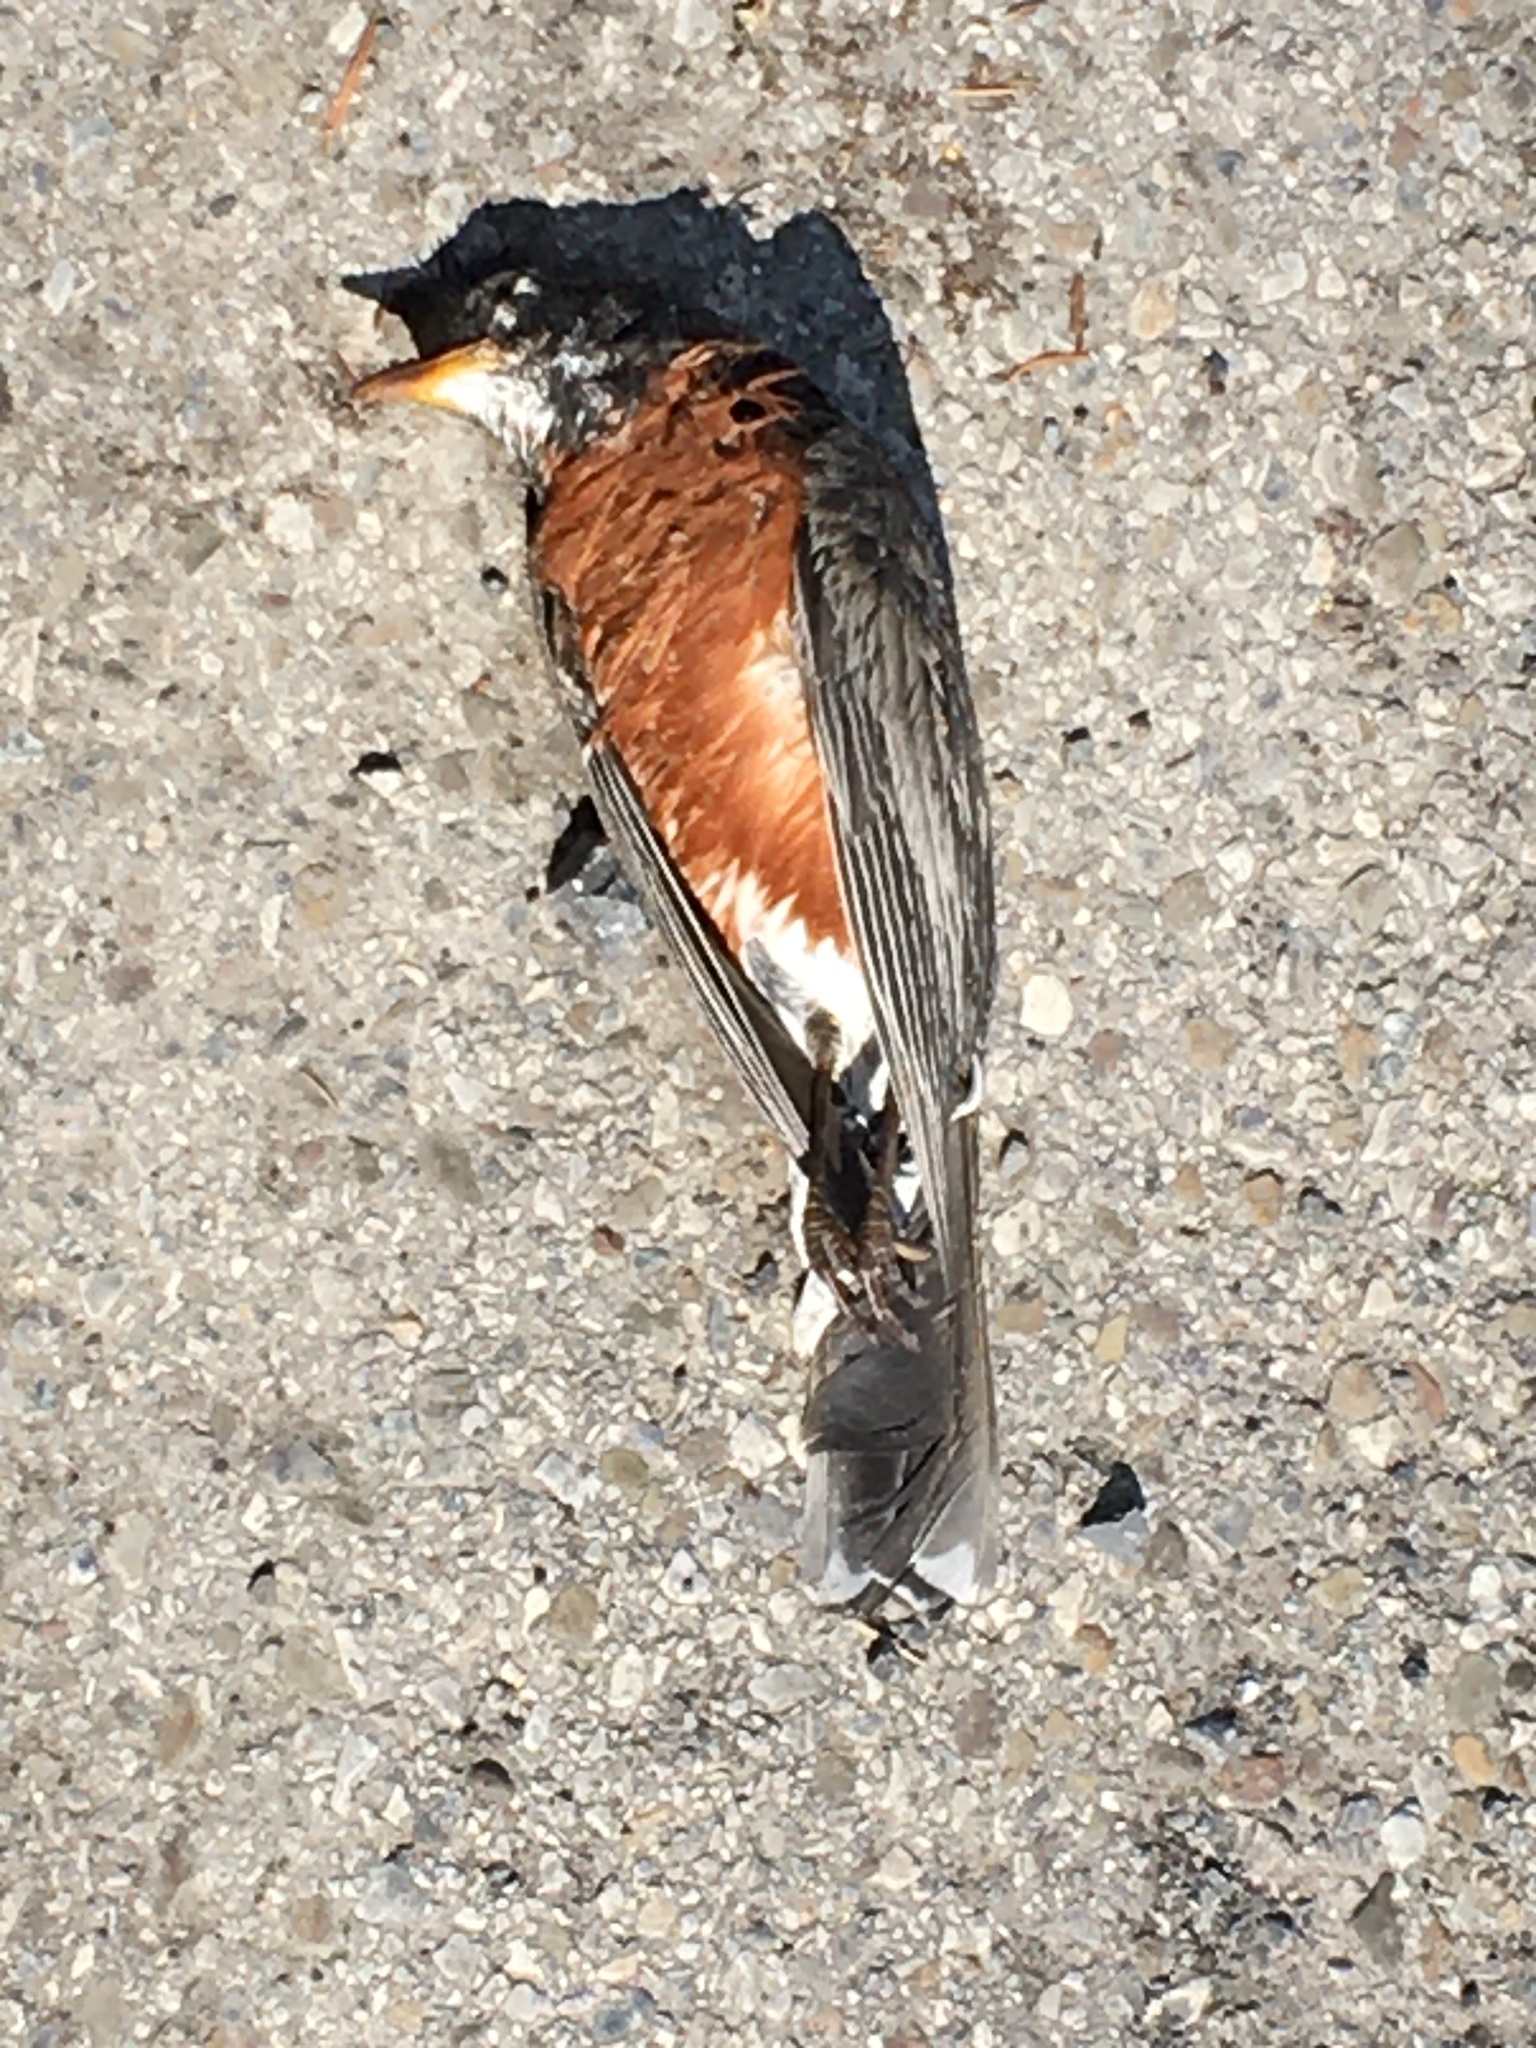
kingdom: Animalia
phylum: Chordata
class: Aves
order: Passeriformes
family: Turdidae
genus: Turdus
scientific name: Turdus migratorius
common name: American robin
